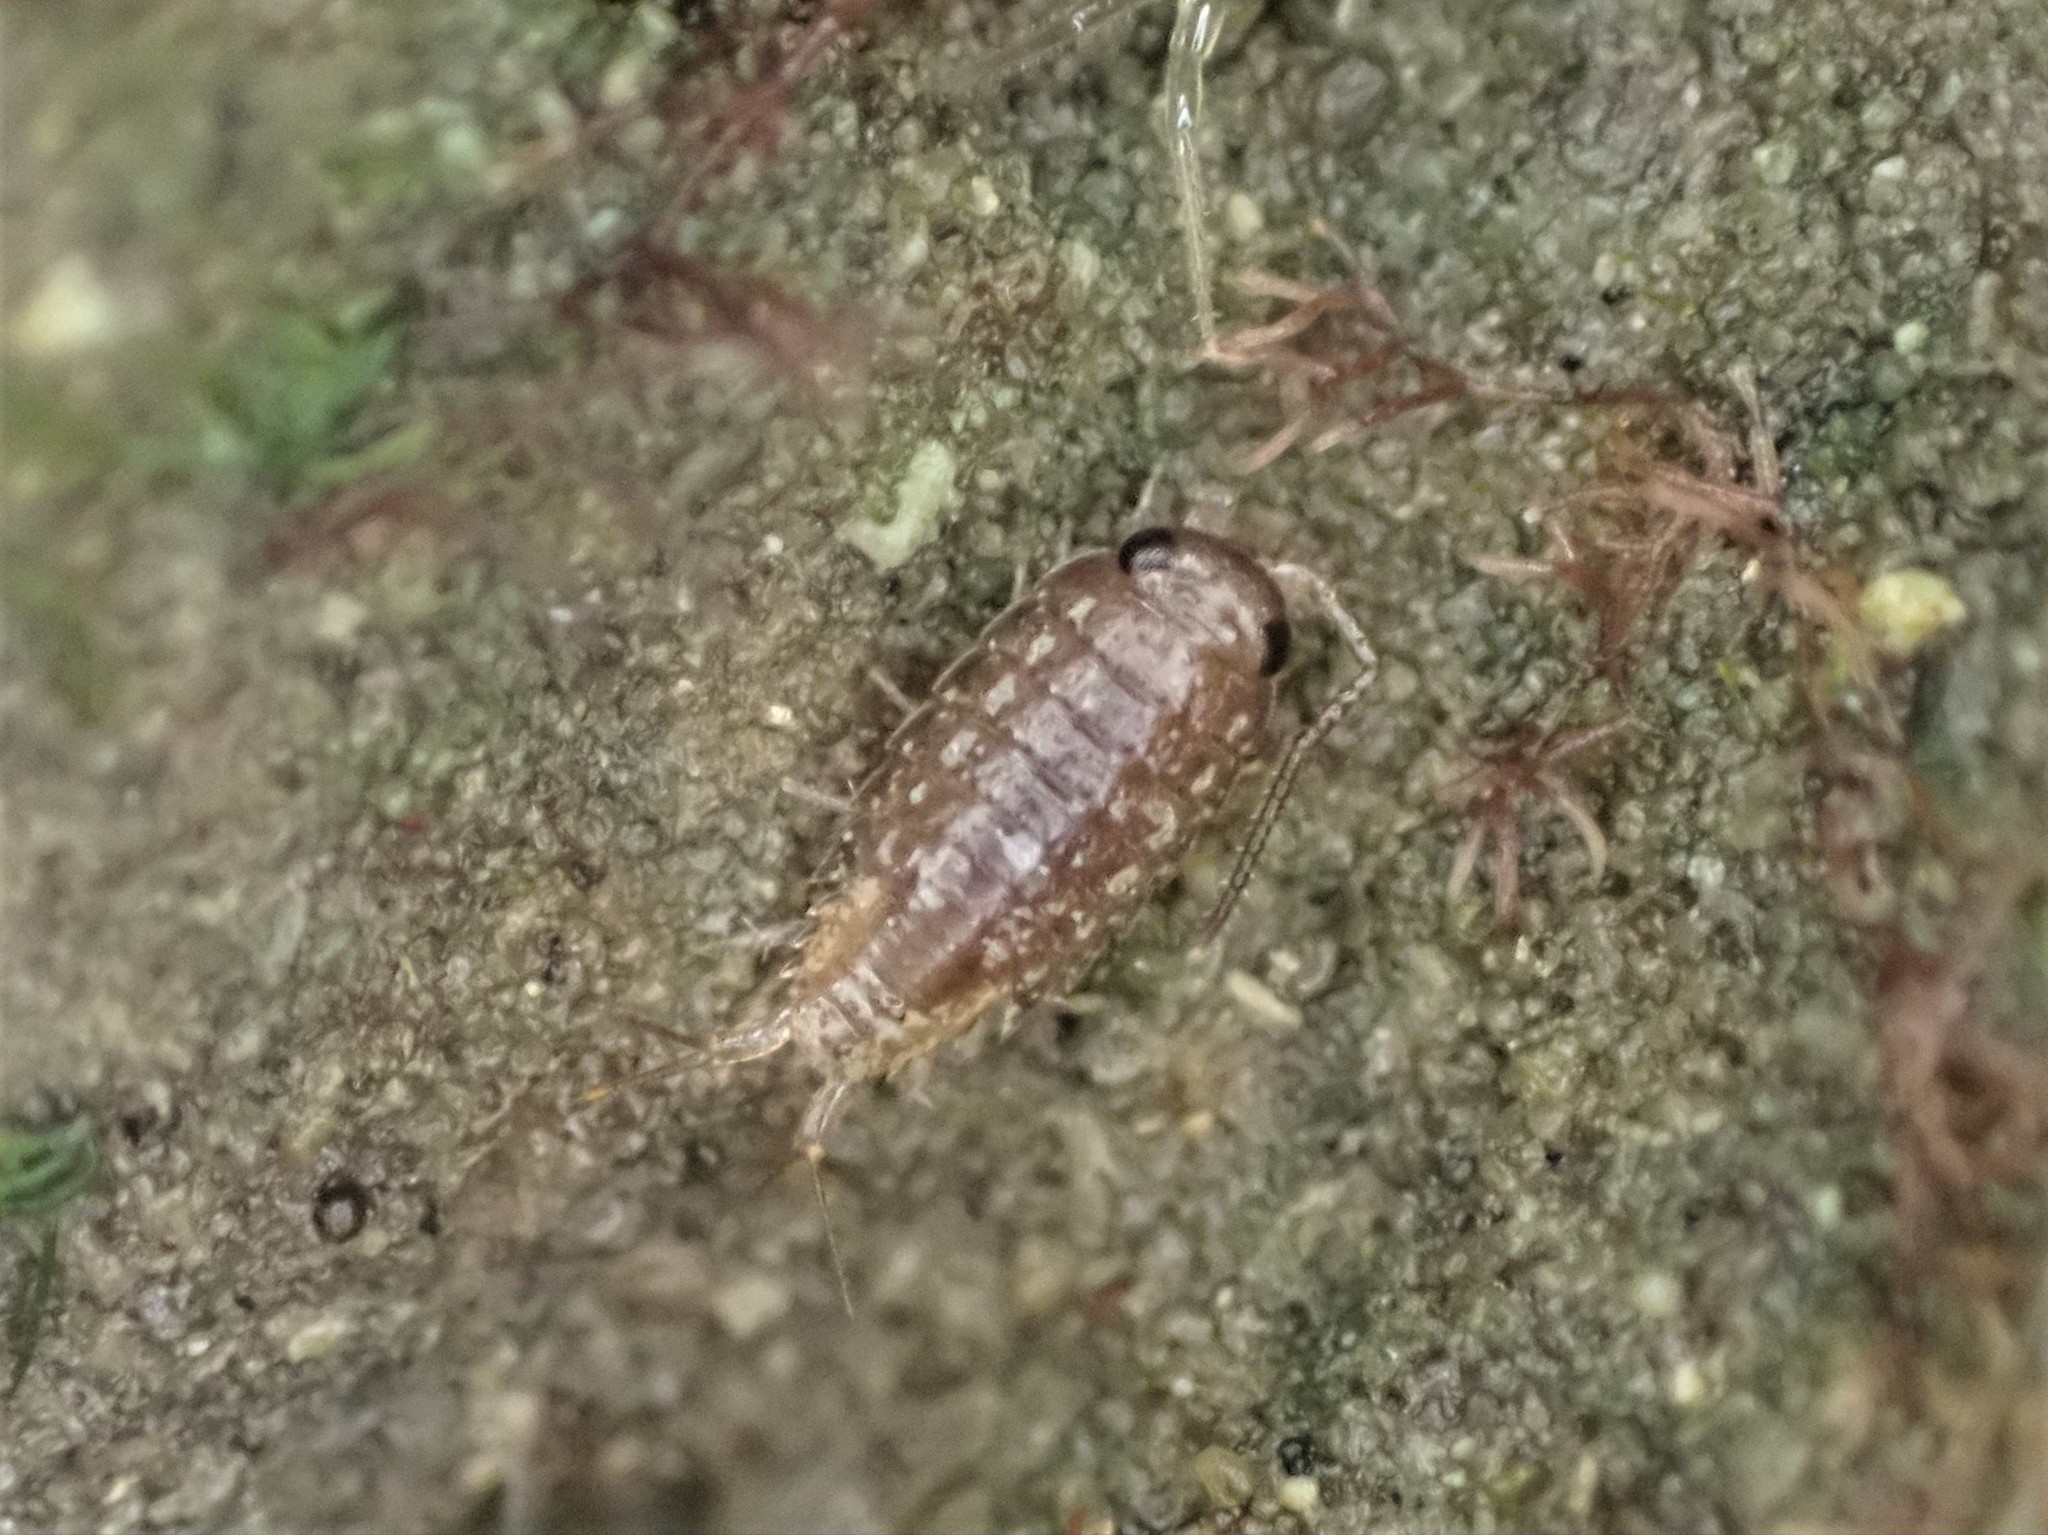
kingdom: Animalia
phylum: Arthropoda
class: Malacostraca
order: Isopoda
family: Ligiidae
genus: Ligia
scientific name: Ligia novizealandiae
